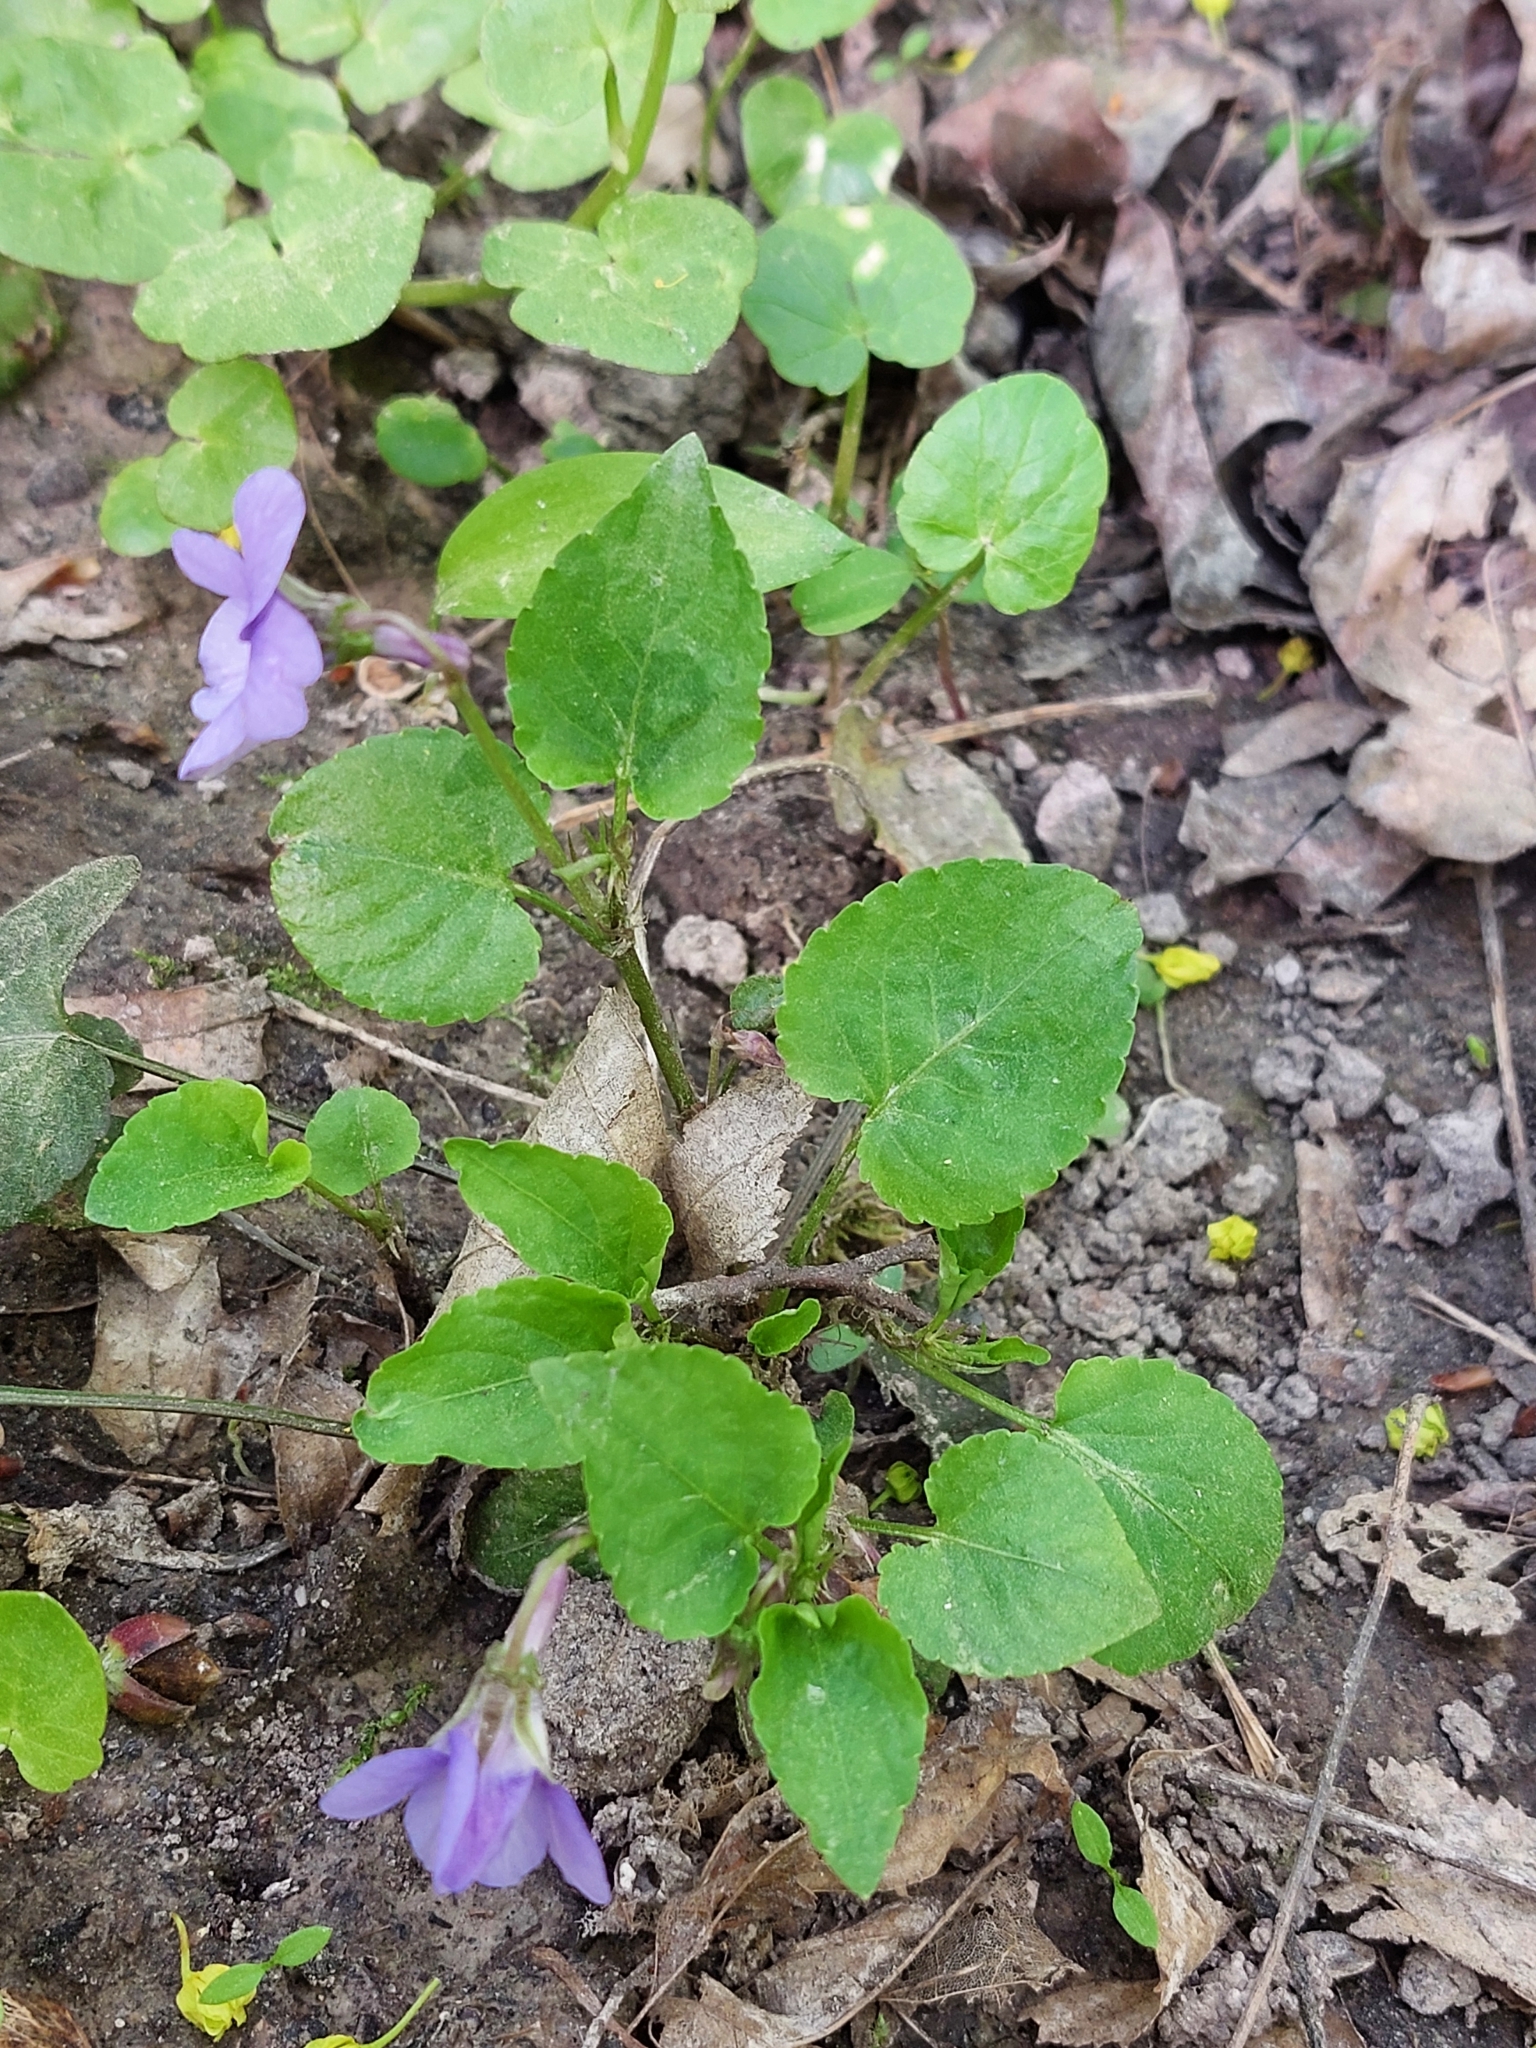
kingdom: Plantae
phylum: Tracheophyta
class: Magnoliopsida
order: Malpighiales
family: Violaceae
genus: Viola
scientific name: Viola reichenbachiana
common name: Early dog-violet
